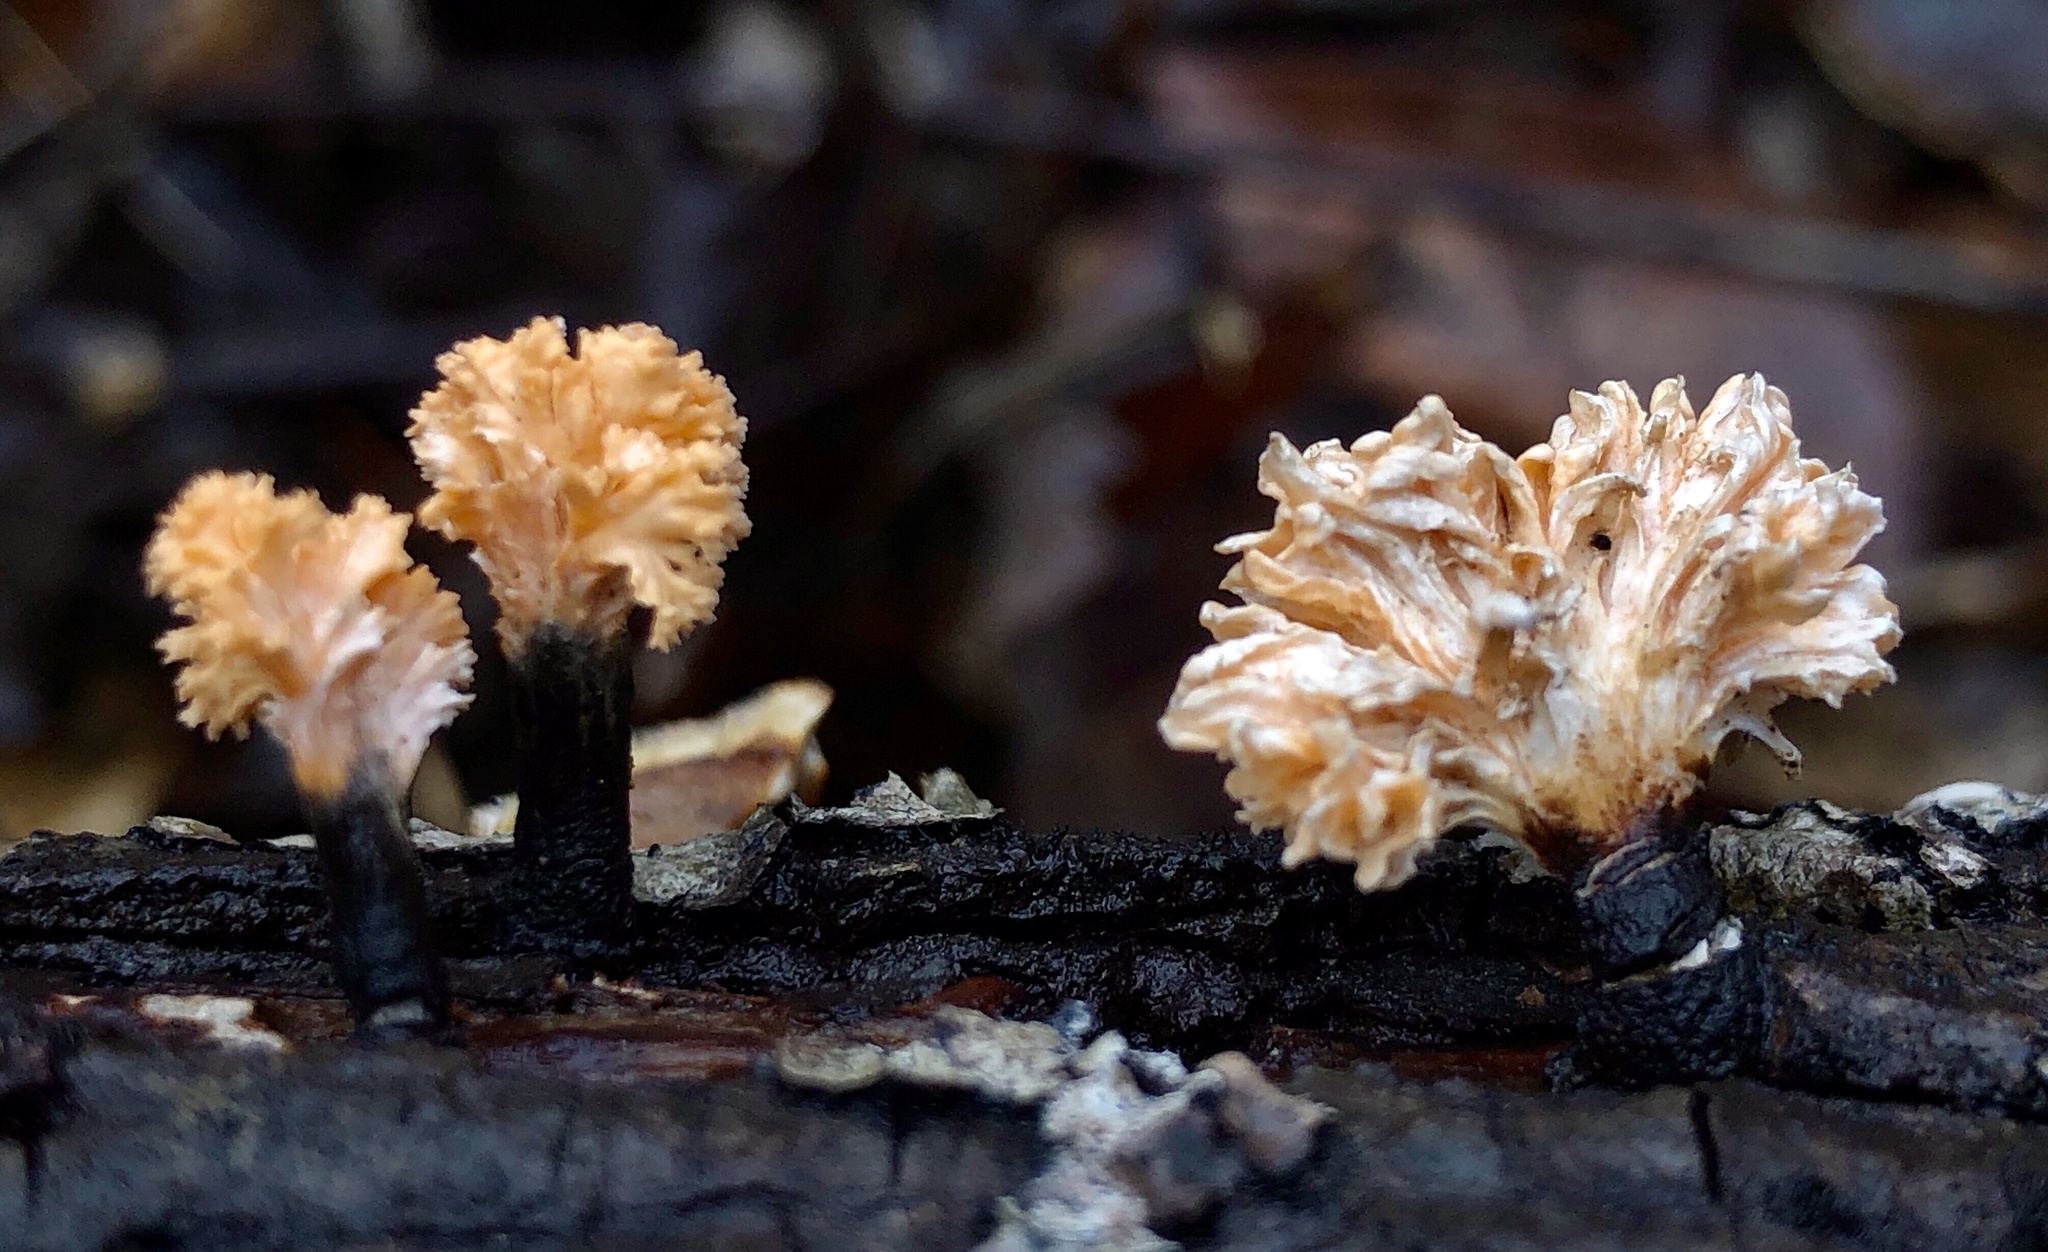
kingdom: Fungi
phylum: Ascomycota
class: Sordariomycetes
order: Xylariales
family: Xylariaceae
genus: Xylaria
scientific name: Xylaria cubensis
